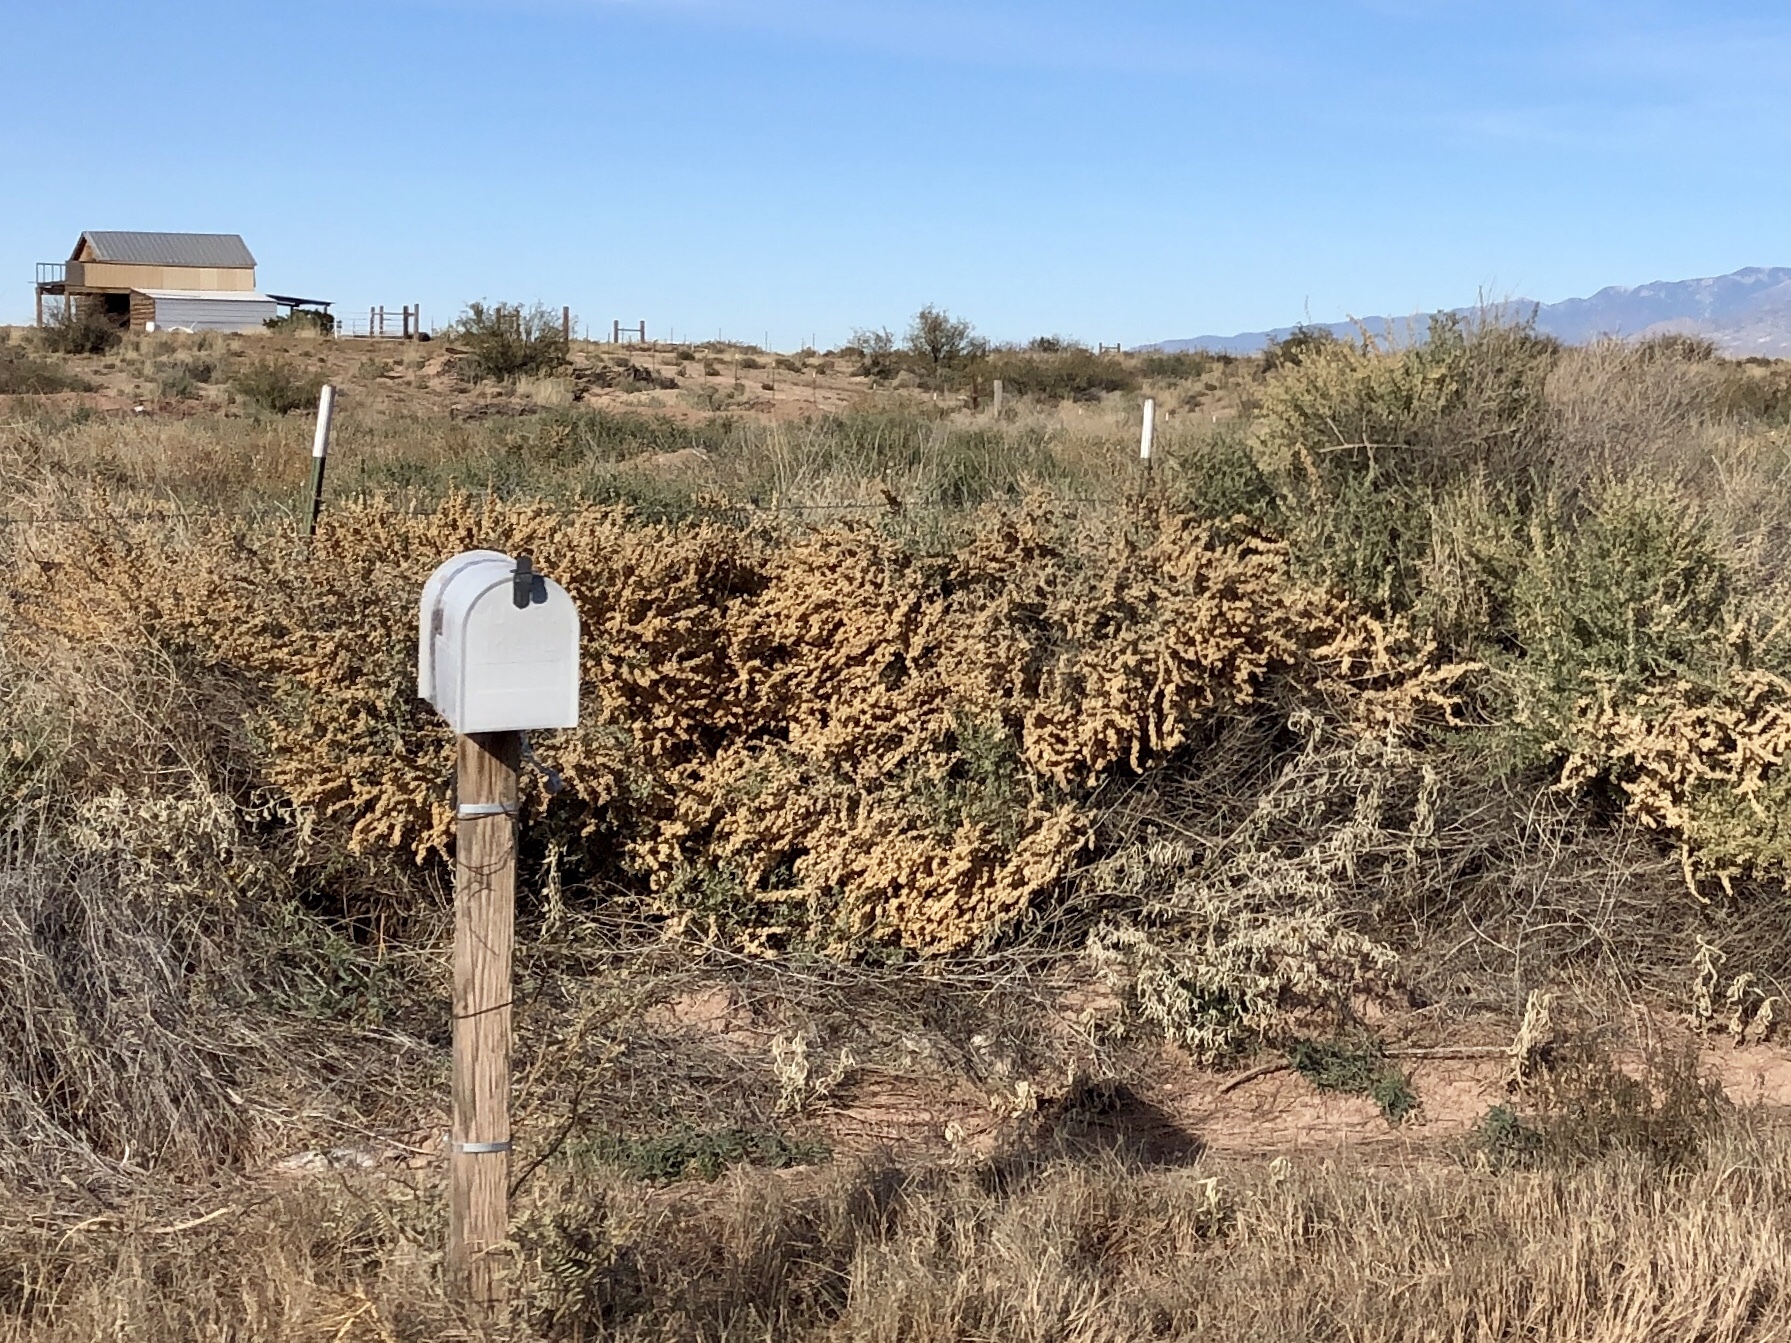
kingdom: Plantae
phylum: Tracheophyta
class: Magnoliopsida
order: Caryophyllales
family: Amaranthaceae
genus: Atriplex
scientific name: Atriplex canescens
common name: Four-wing saltbush
